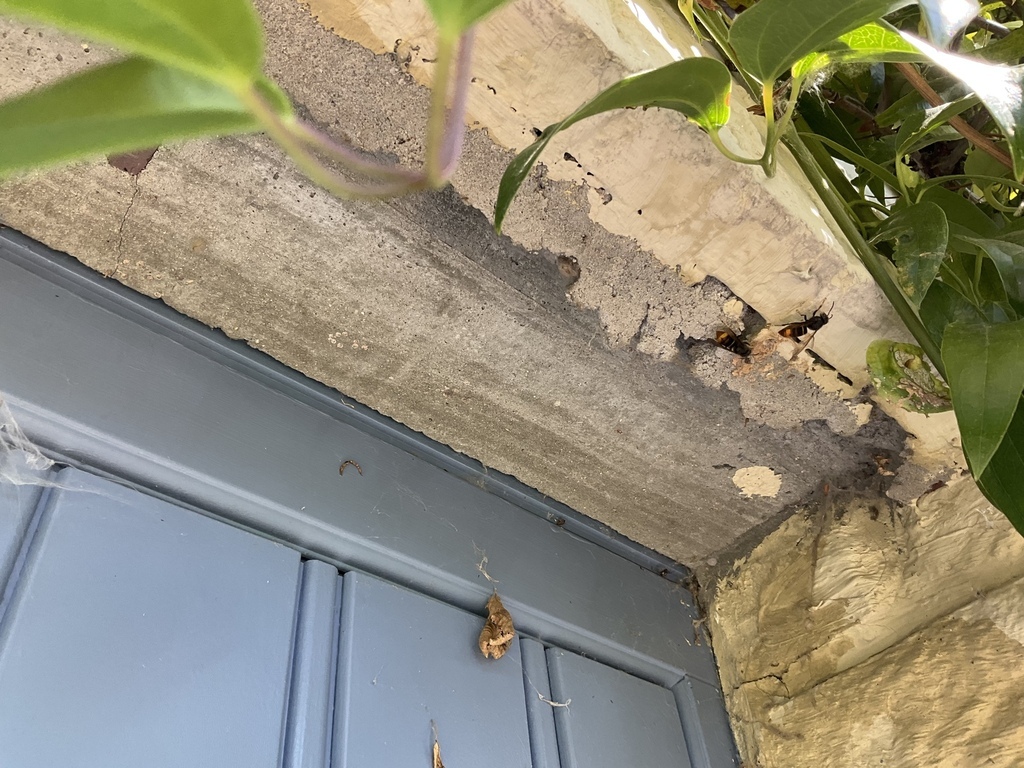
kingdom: Animalia
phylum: Arthropoda
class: Insecta
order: Hymenoptera
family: Vespidae
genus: Vespa
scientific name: Vespa velutina
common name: Asian hornet
